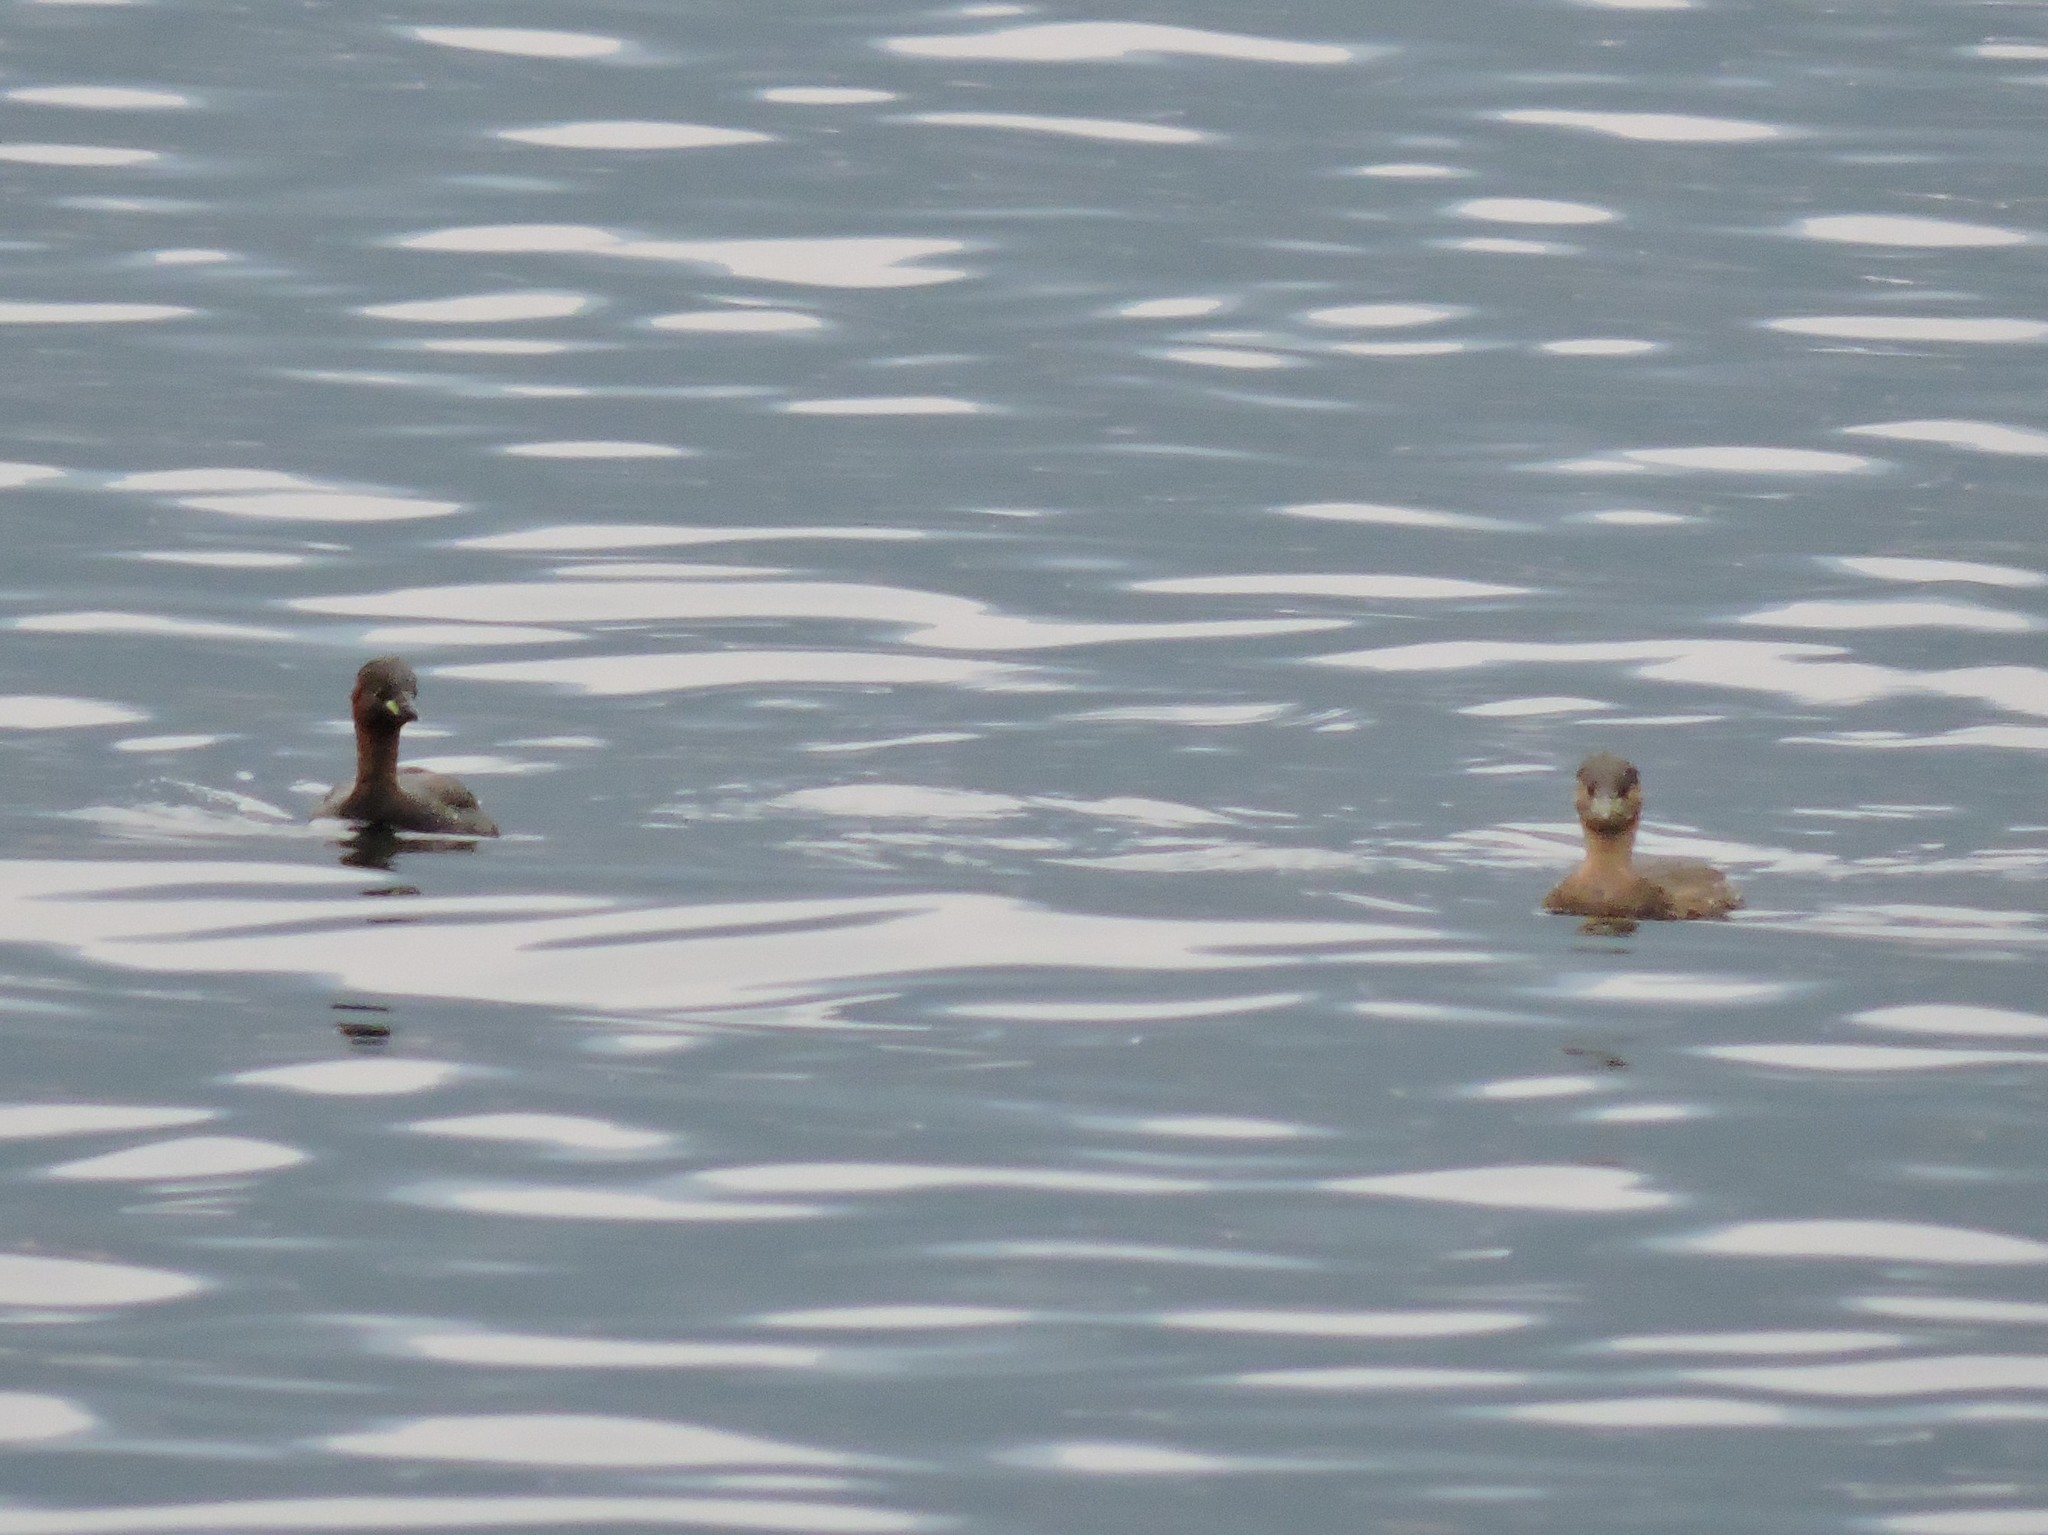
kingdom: Animalia
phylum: Chordata
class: Aves
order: Podicipediformes
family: Podicipedidae
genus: Tachybaptus
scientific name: Tachybaptus ruficollis
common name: Little grebe
